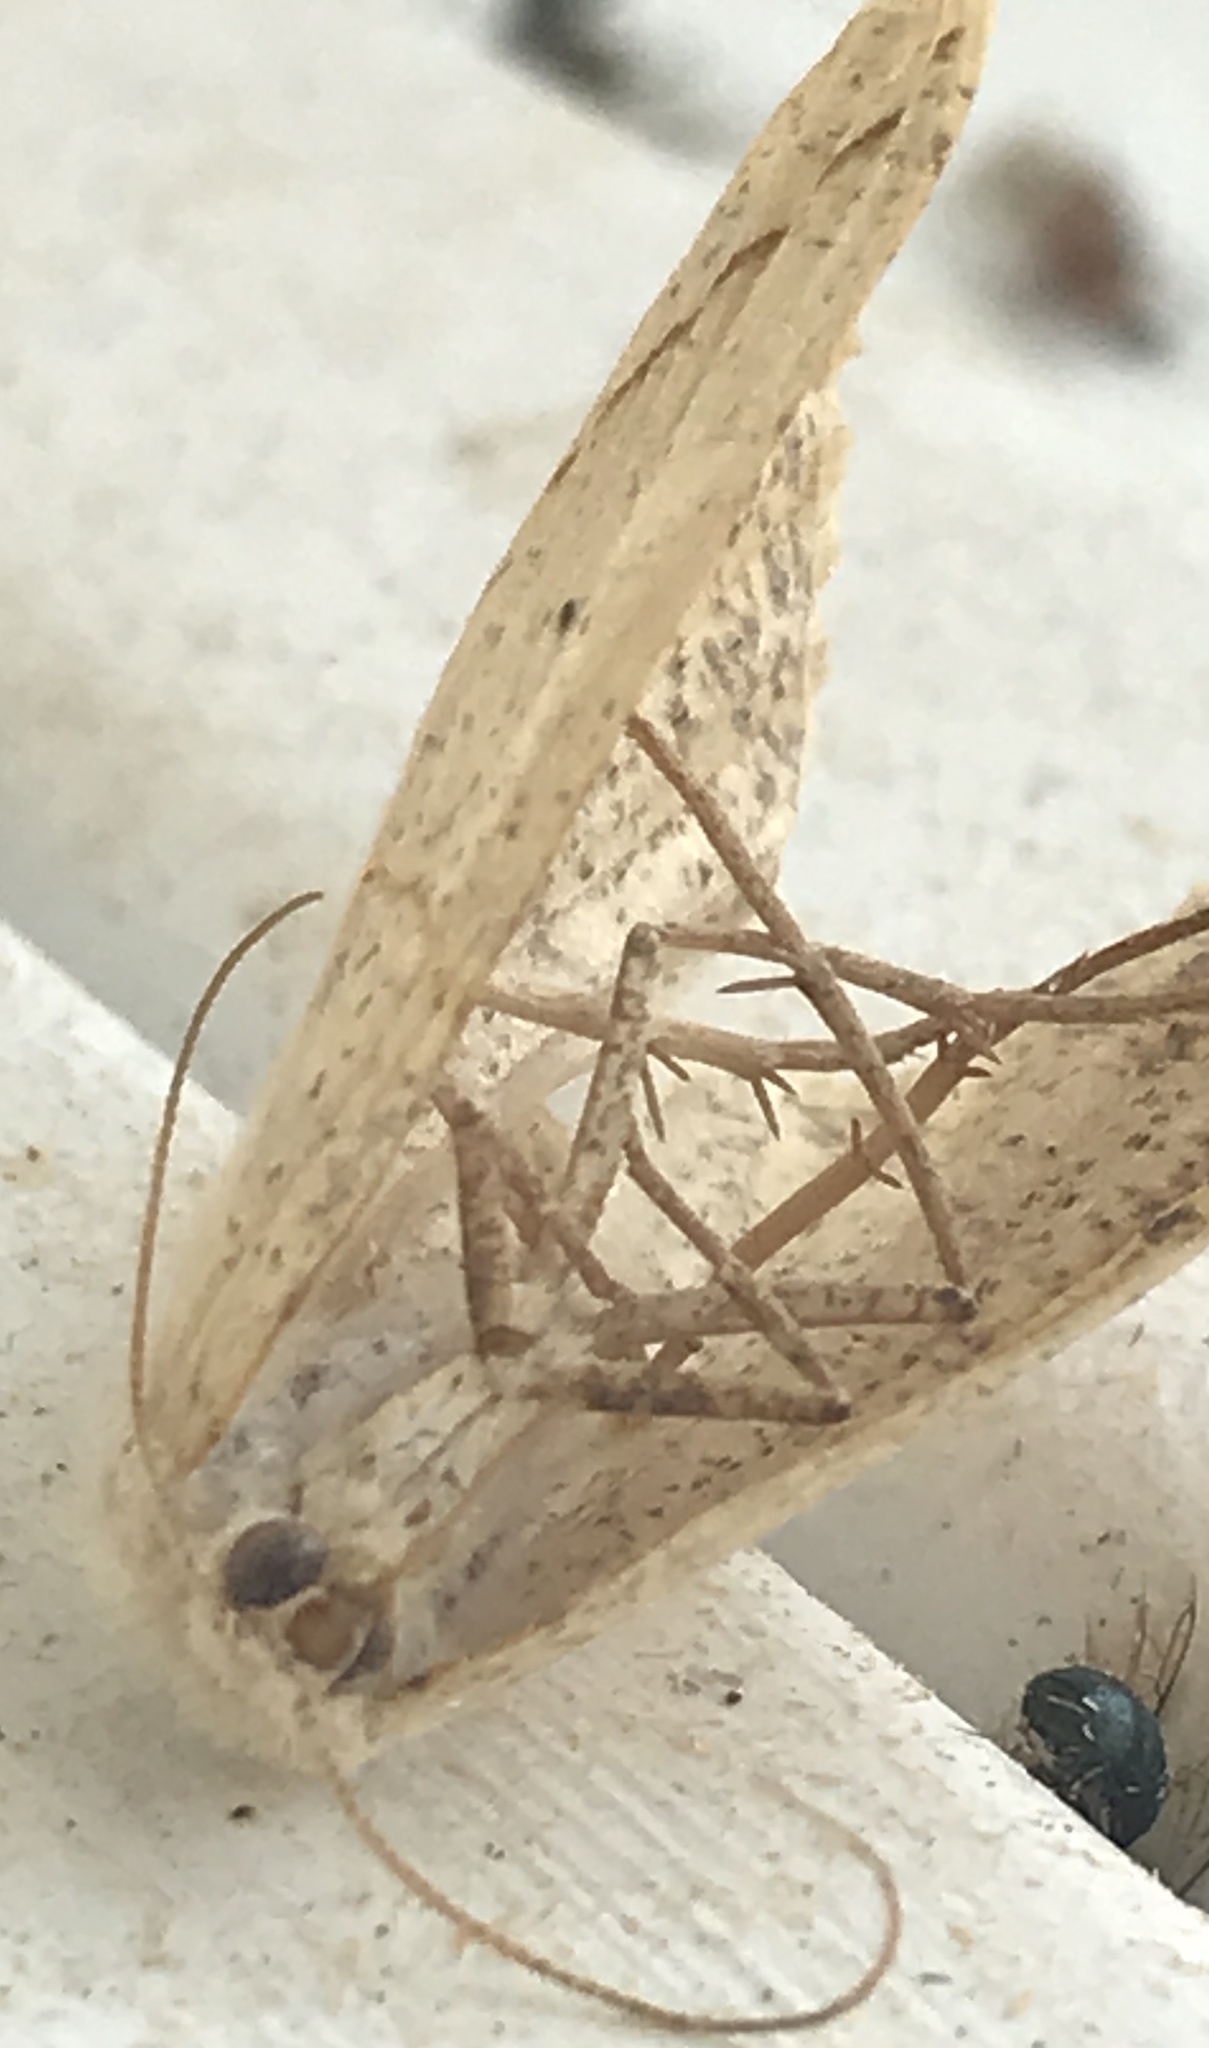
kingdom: Animalia
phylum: Arthropoda
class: Insecta
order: Lepidoptera
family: Geometridae
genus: Eusarca
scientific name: Eusarca confusaria
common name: Confused eusarca
